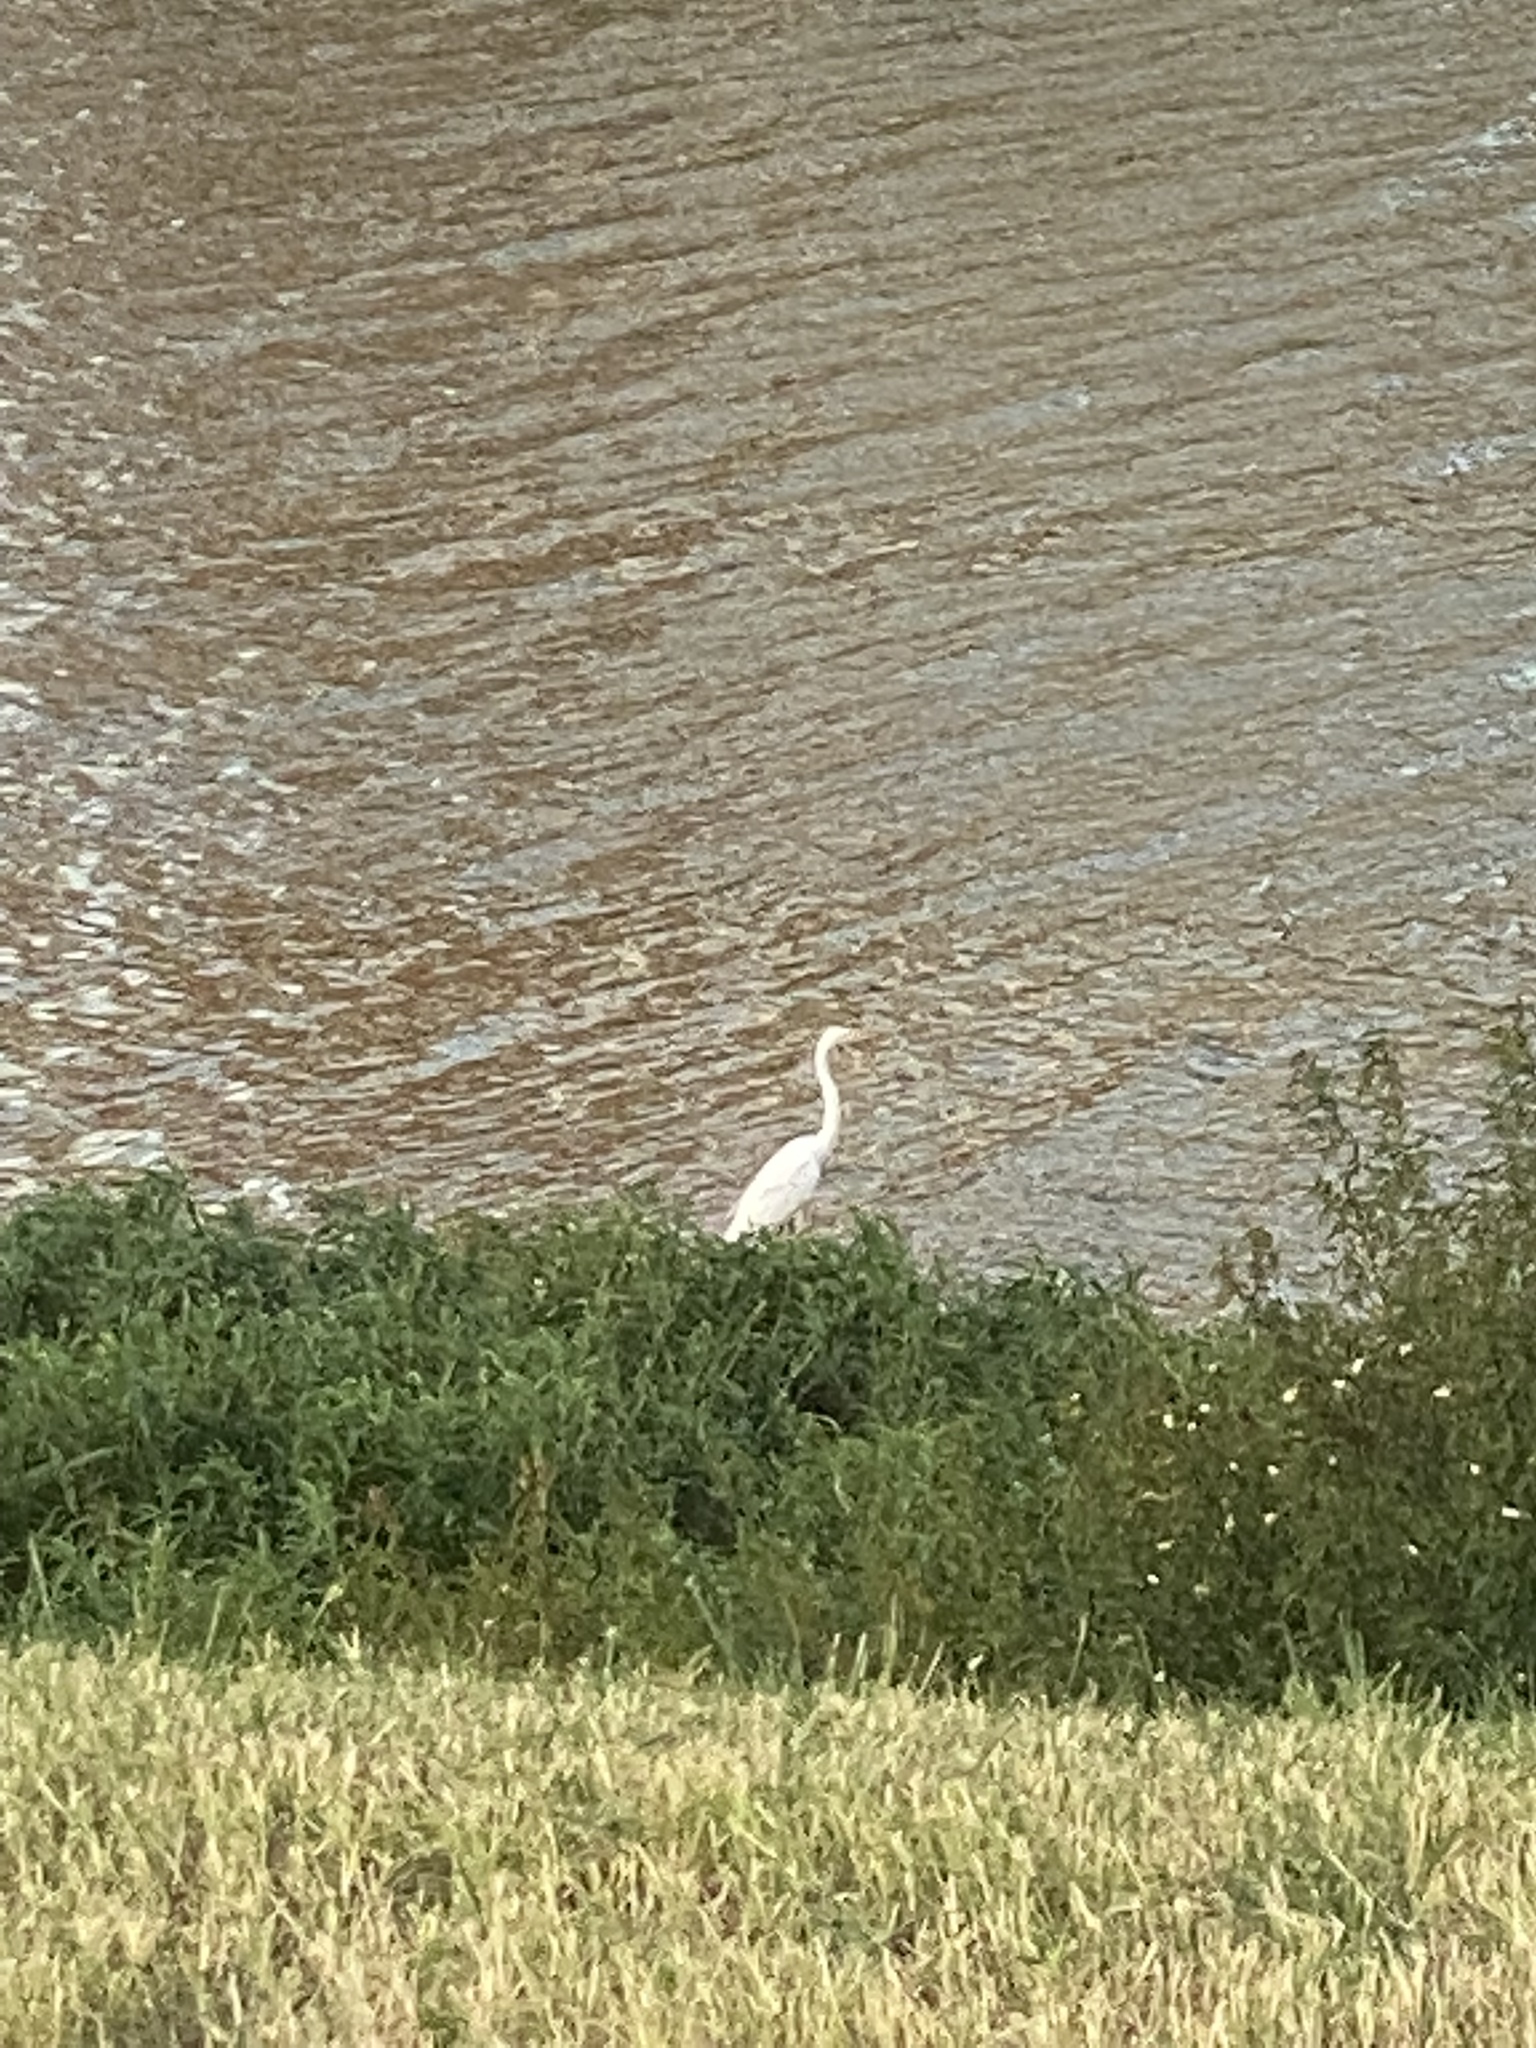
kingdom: Animalia
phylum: Chordata
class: Aves
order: Pelecaniformes
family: Ardeidae
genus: Ardea
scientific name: Ardea alba
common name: Great egret
